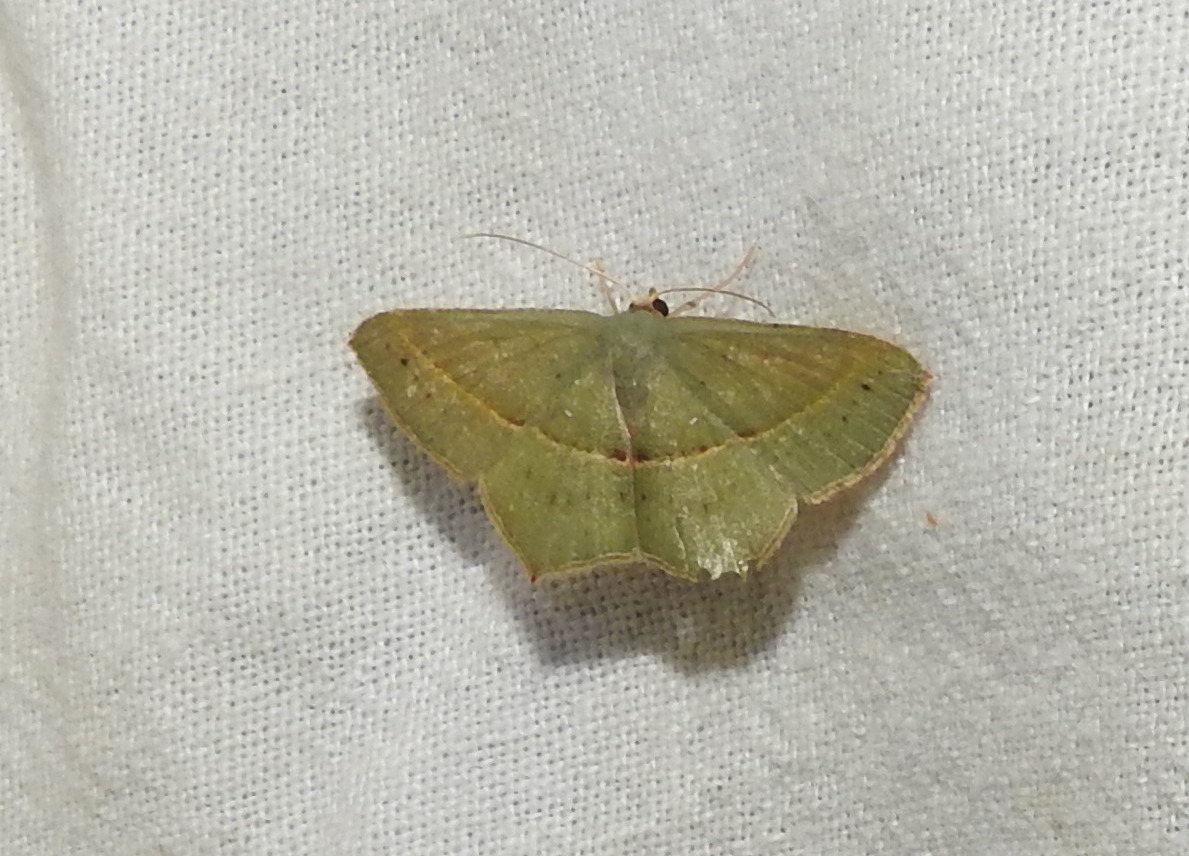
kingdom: Animalia
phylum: Arthropoda
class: Insecta
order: Lepidoptera
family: Geometridae
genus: Traminda
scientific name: Traminda mundissima
